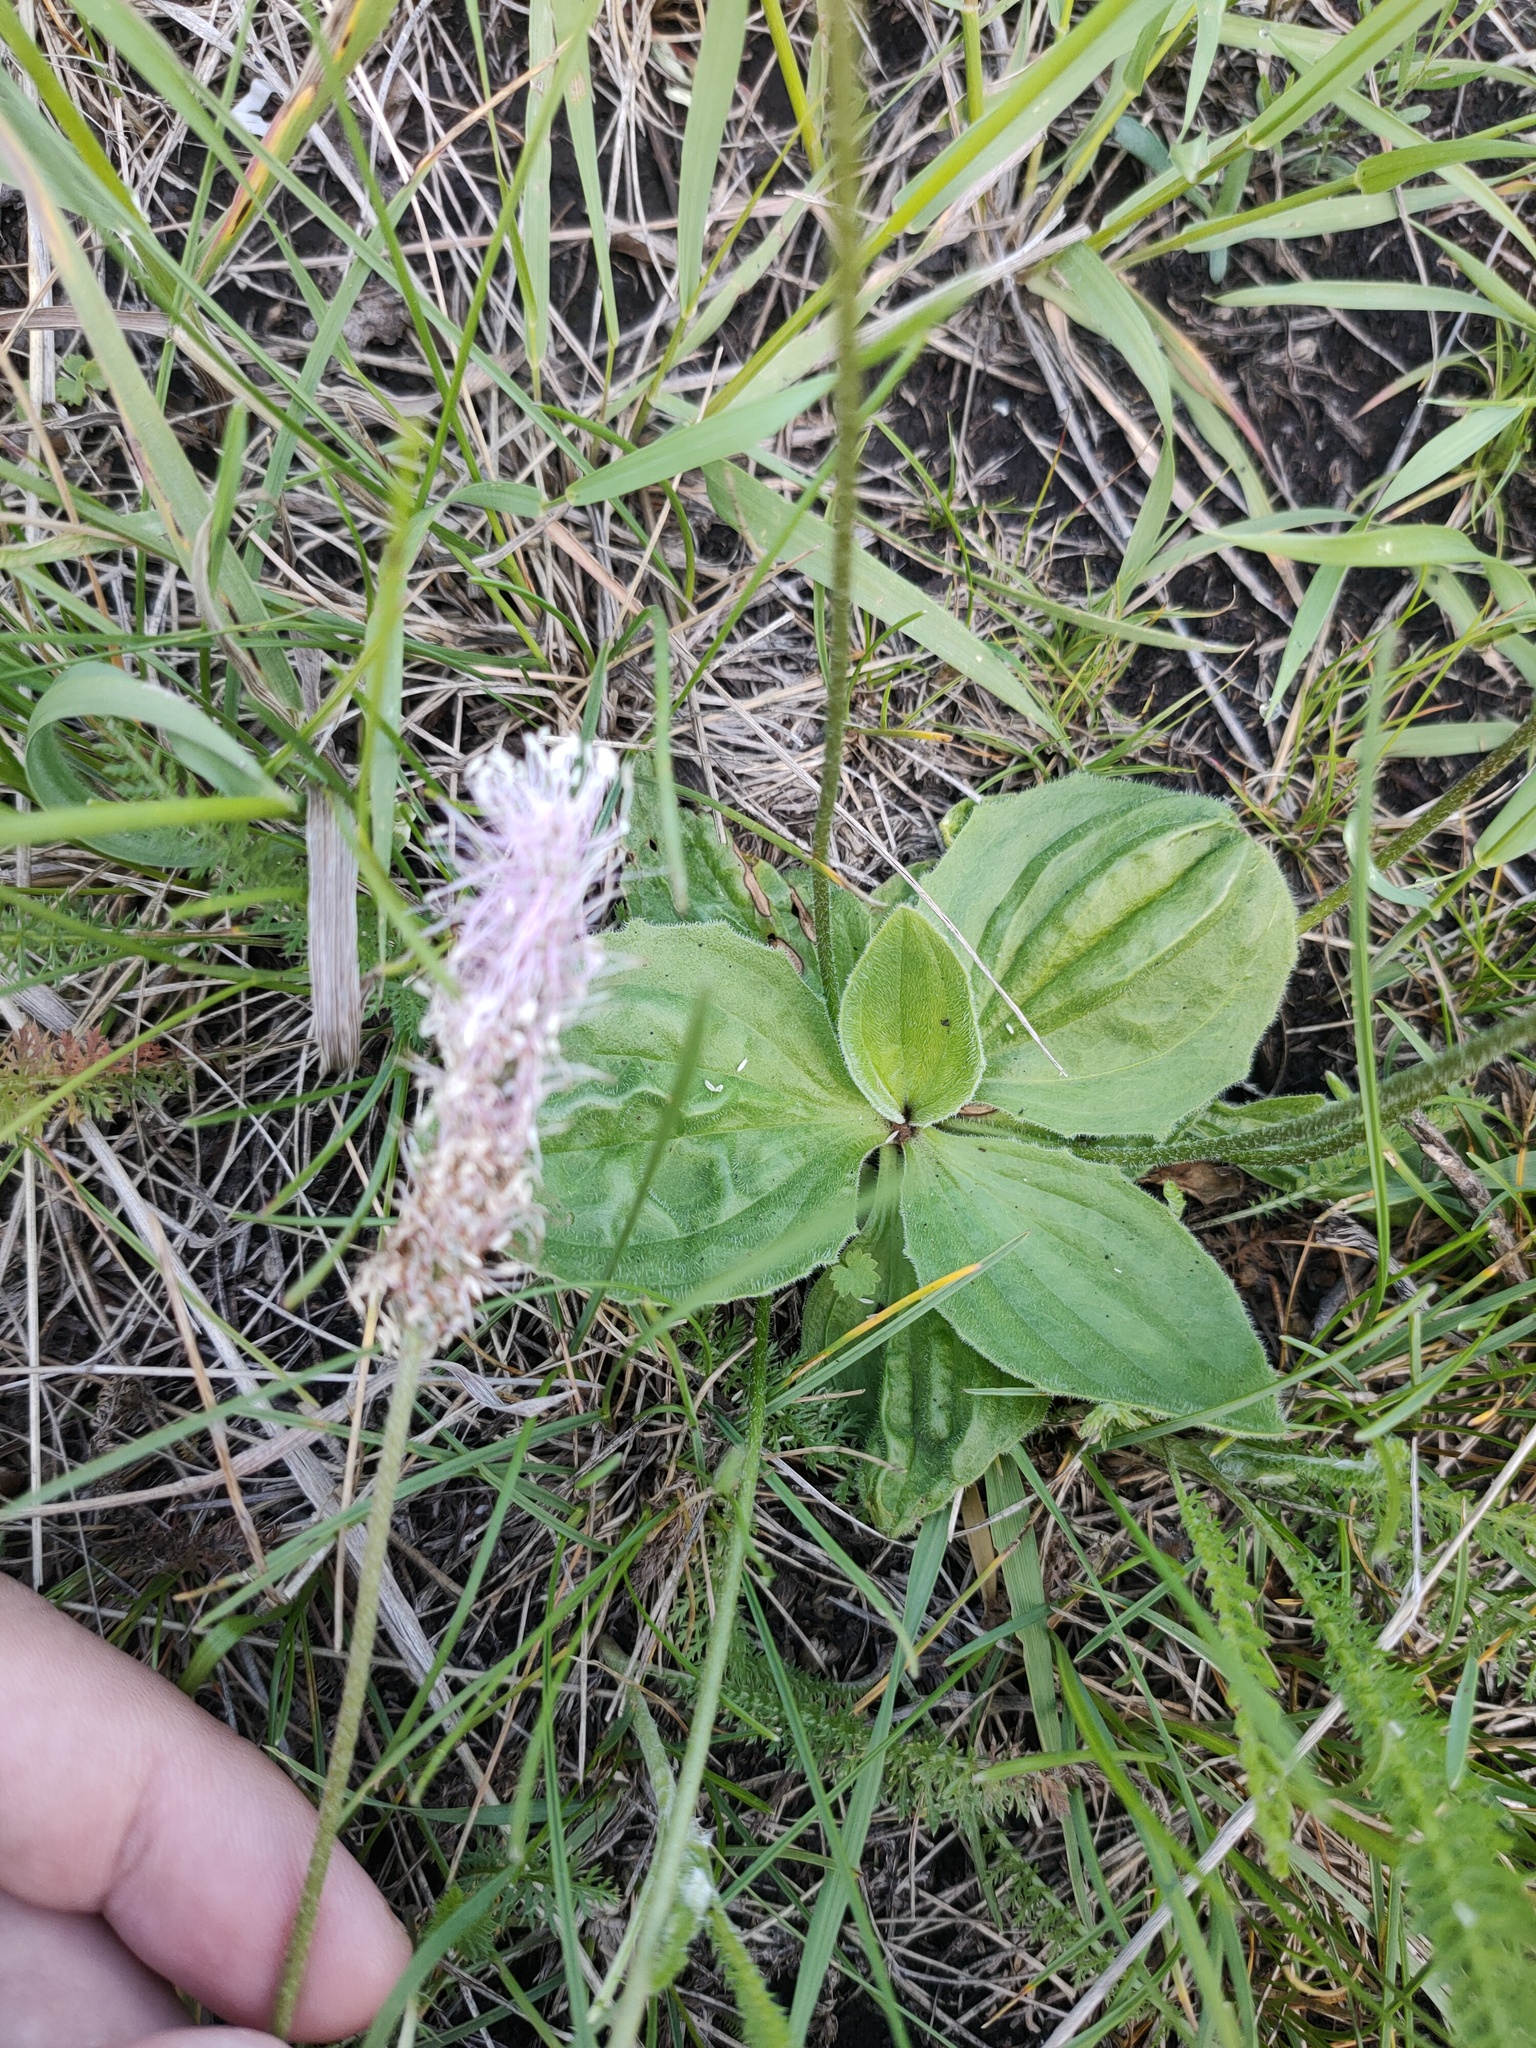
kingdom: Plantae
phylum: Tracheophyta
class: Magnoliopsida
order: Lamiales
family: Plantaginaceae
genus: Plantago
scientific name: Plantago media
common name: Hoary plantain
